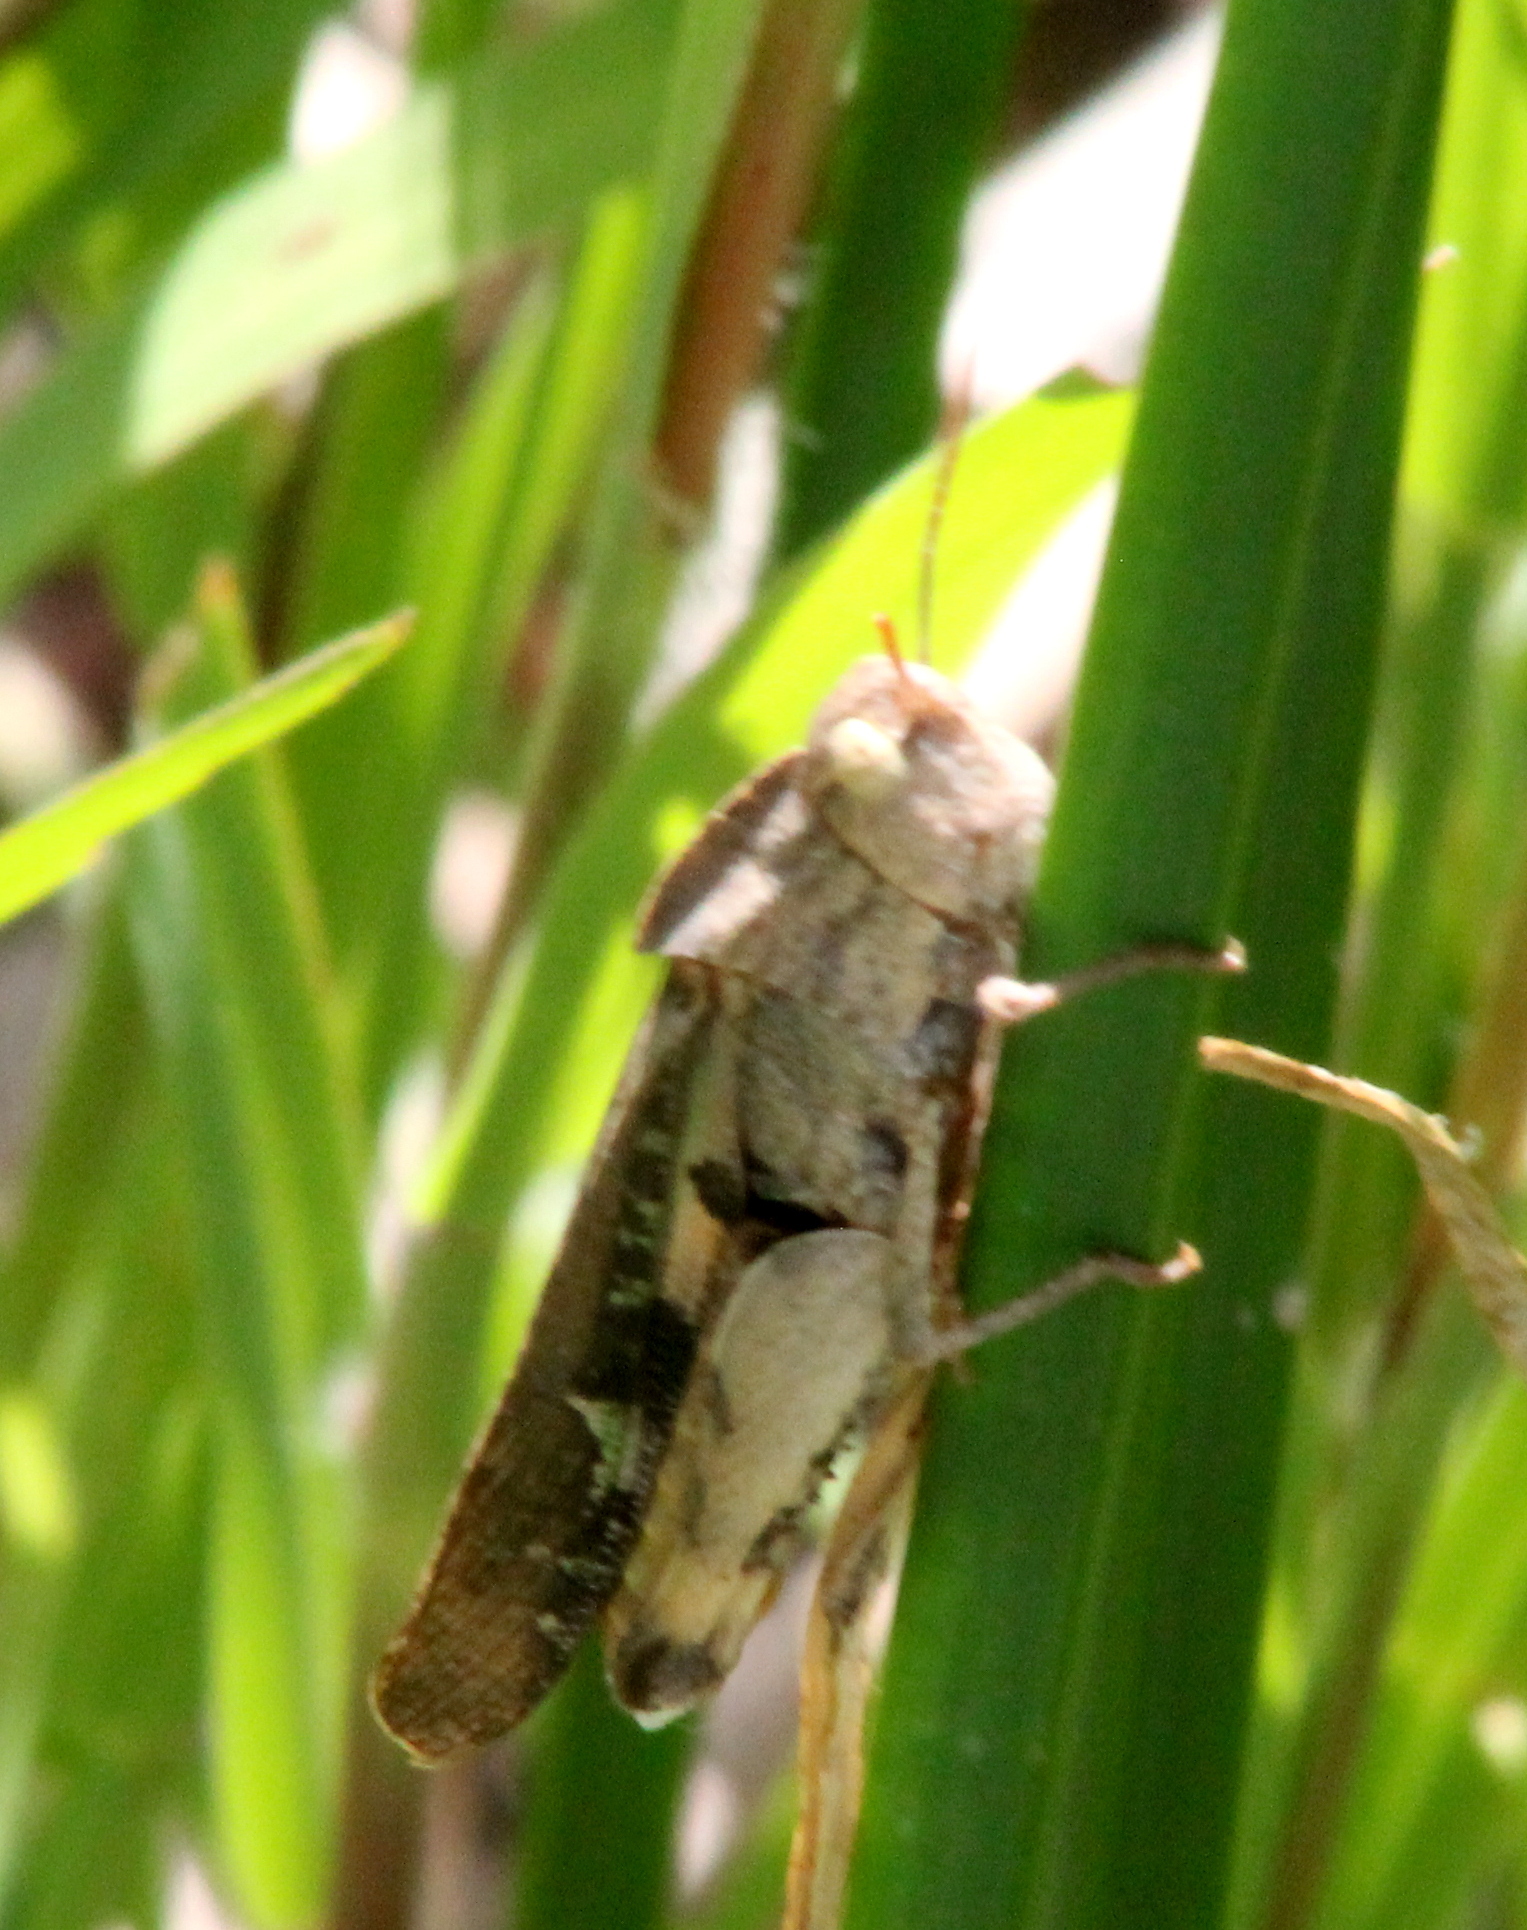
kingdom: Animalia
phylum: Arthropoda
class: Insecta
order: Orthoptera
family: Acrididae
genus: Chortophaga
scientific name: Chortophaga viridifasciata
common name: Green-striped grasshopper
